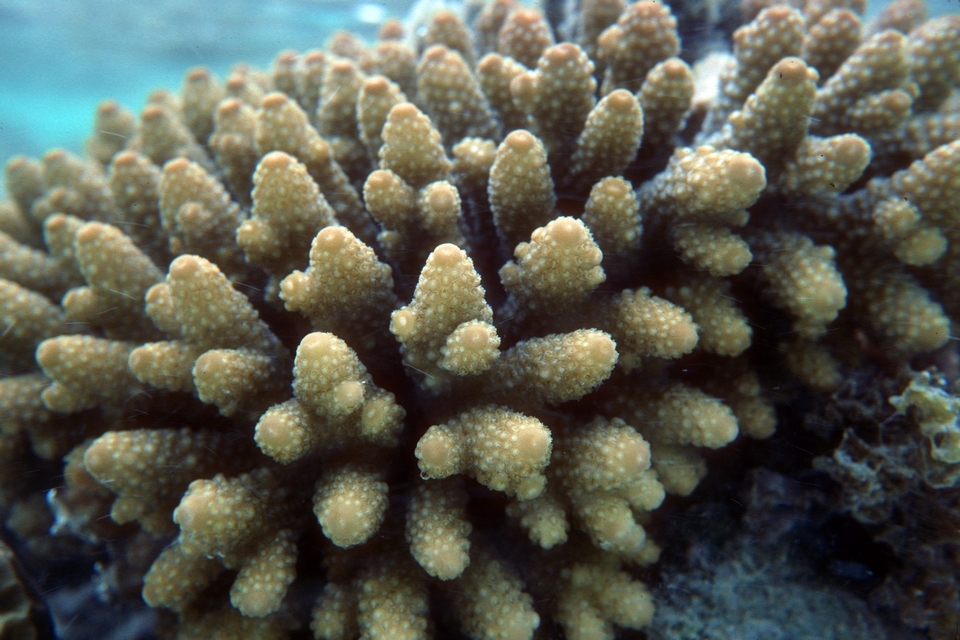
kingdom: Animalia
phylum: Cnidaria
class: Anthozoa
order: Scleractinia
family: Acroporidae
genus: Acropora
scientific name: Acropora humilis
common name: Finger coral
